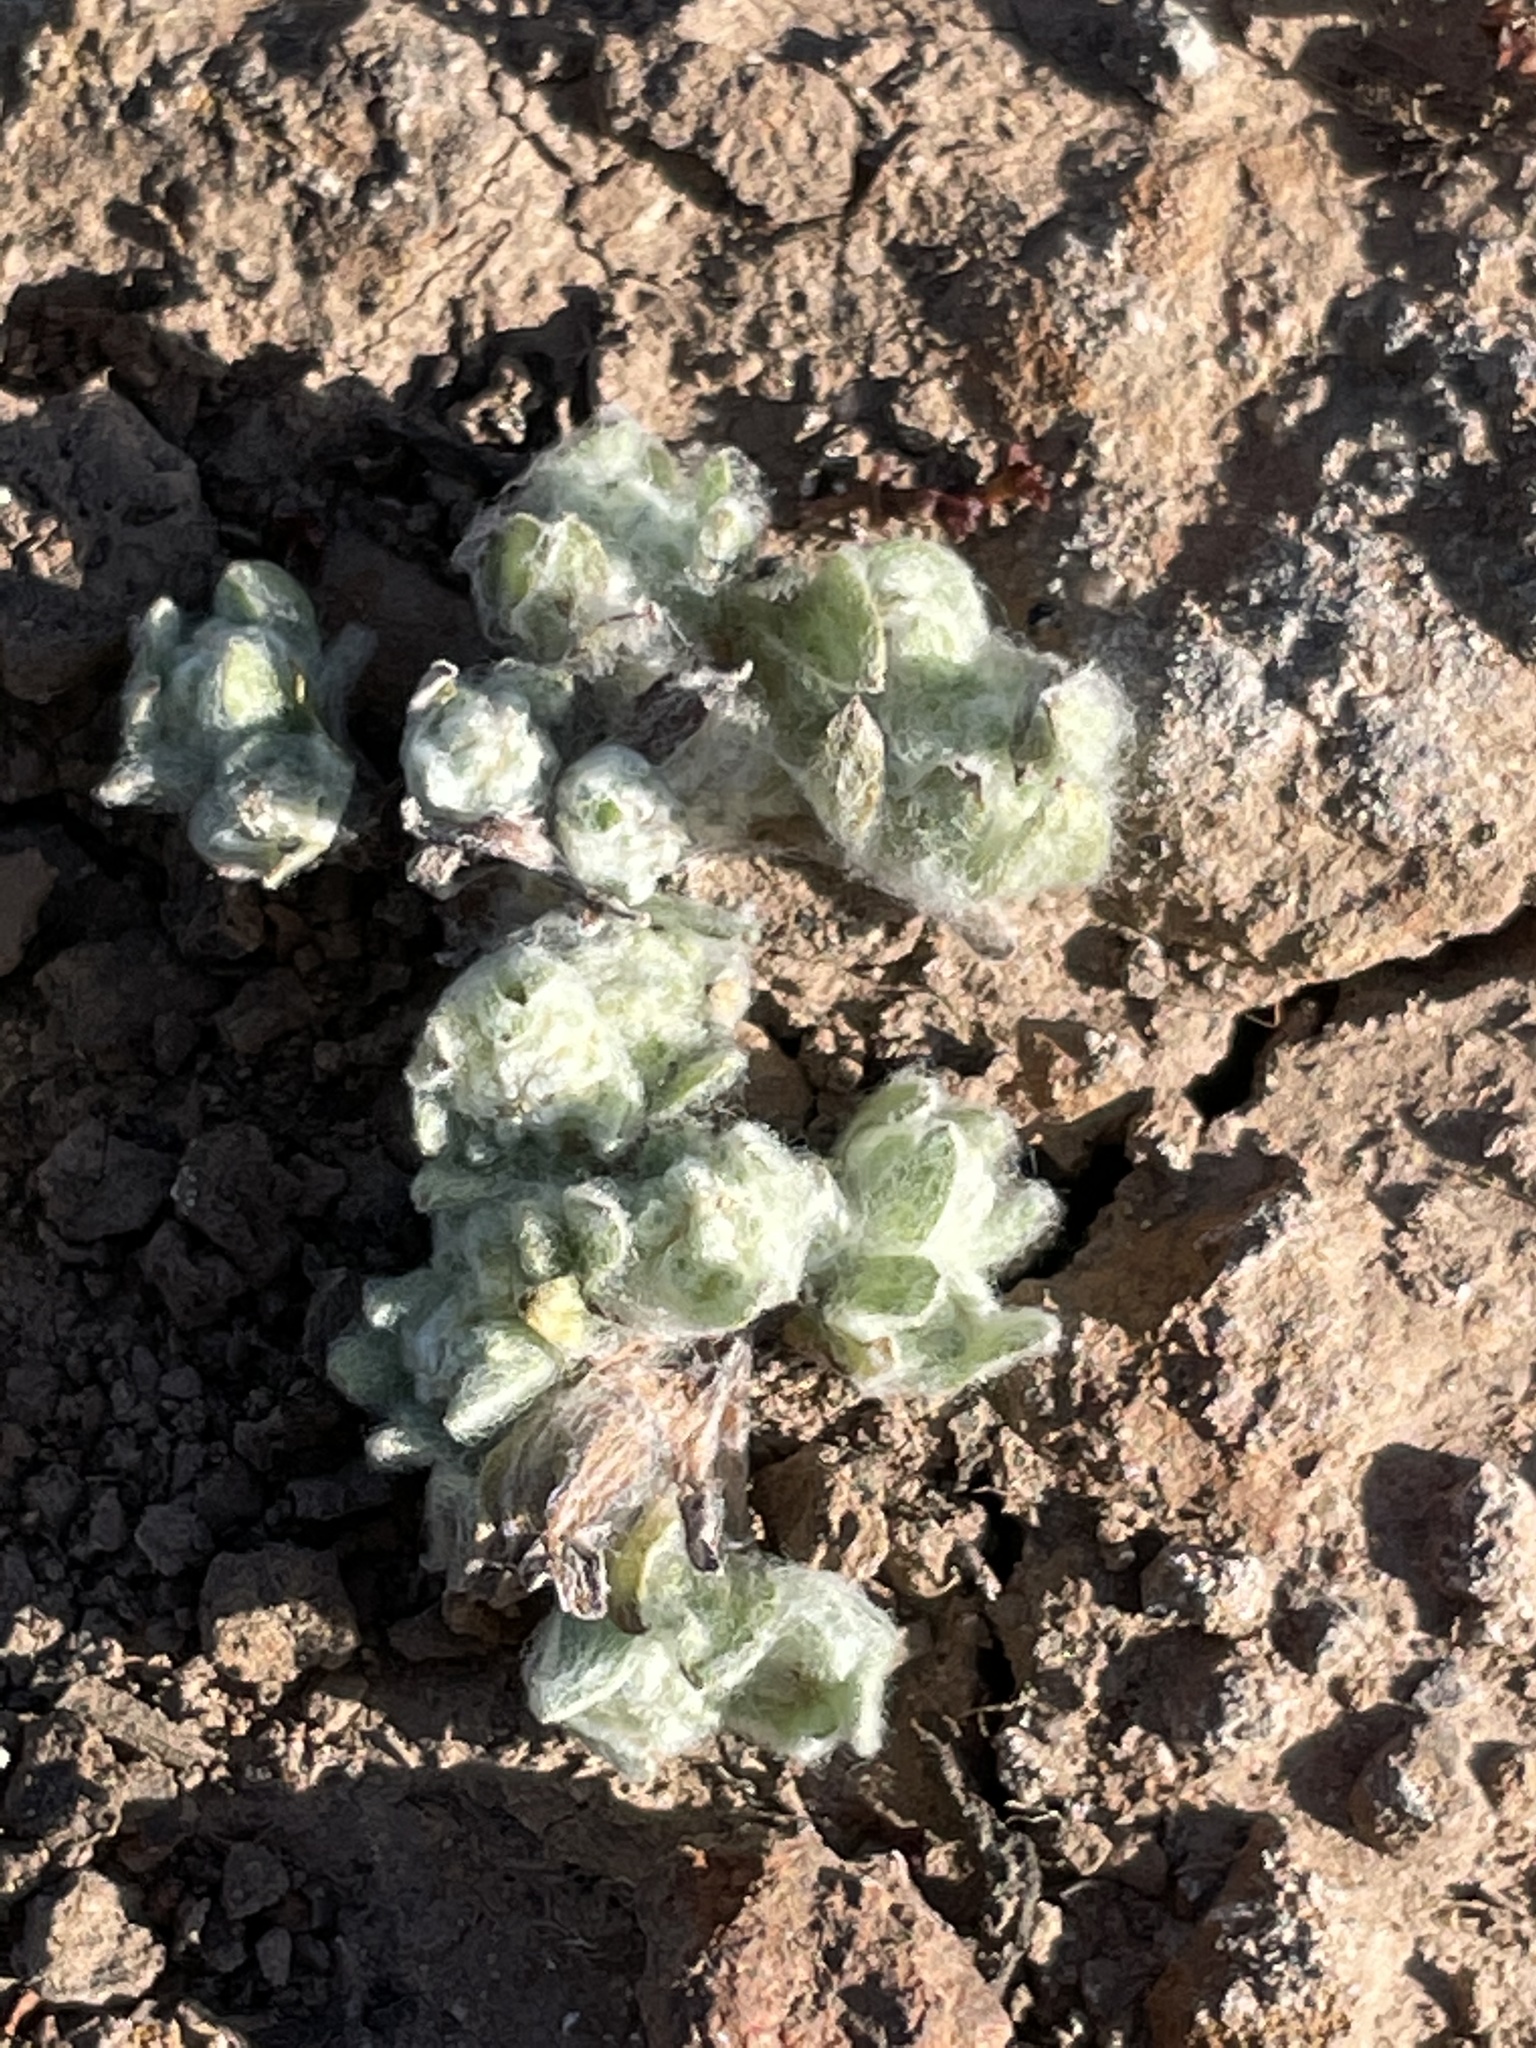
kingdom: Plantae
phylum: Tracheophyta
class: Magnoliopsida
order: Asterales
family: Asteraceae
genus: Psilocarphus
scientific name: Psilocarphus brevissimus
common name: Dwarf woollyheads
